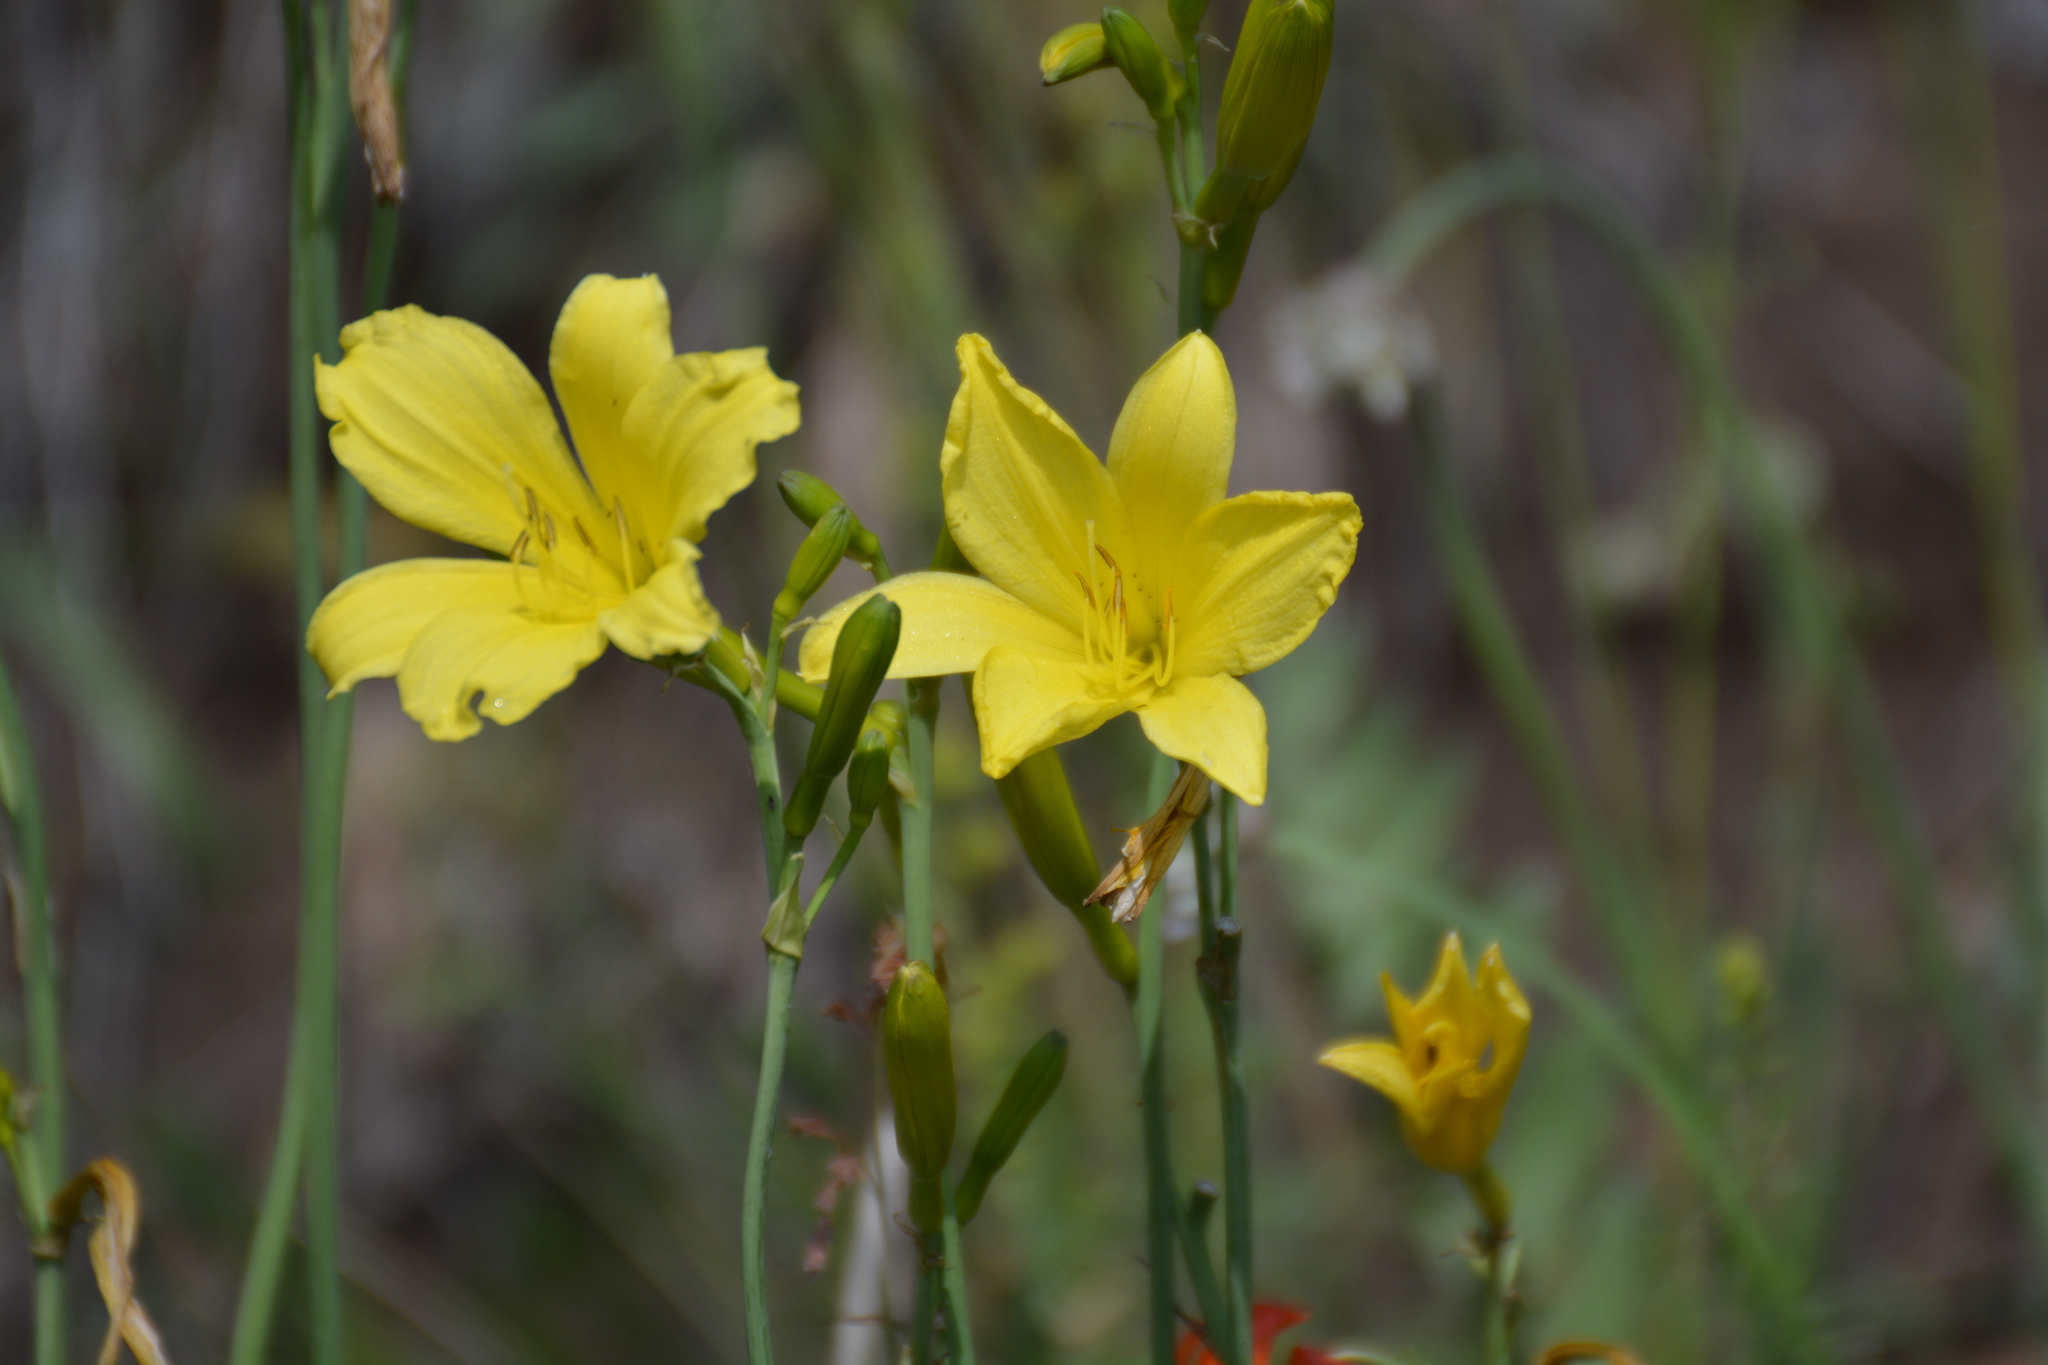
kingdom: Plantae
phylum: Tracheophyta
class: Liliopsida
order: Asparagales
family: Asphodelaceae
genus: Hemerocallis
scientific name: Hemerocallis minor
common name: Small daylily
